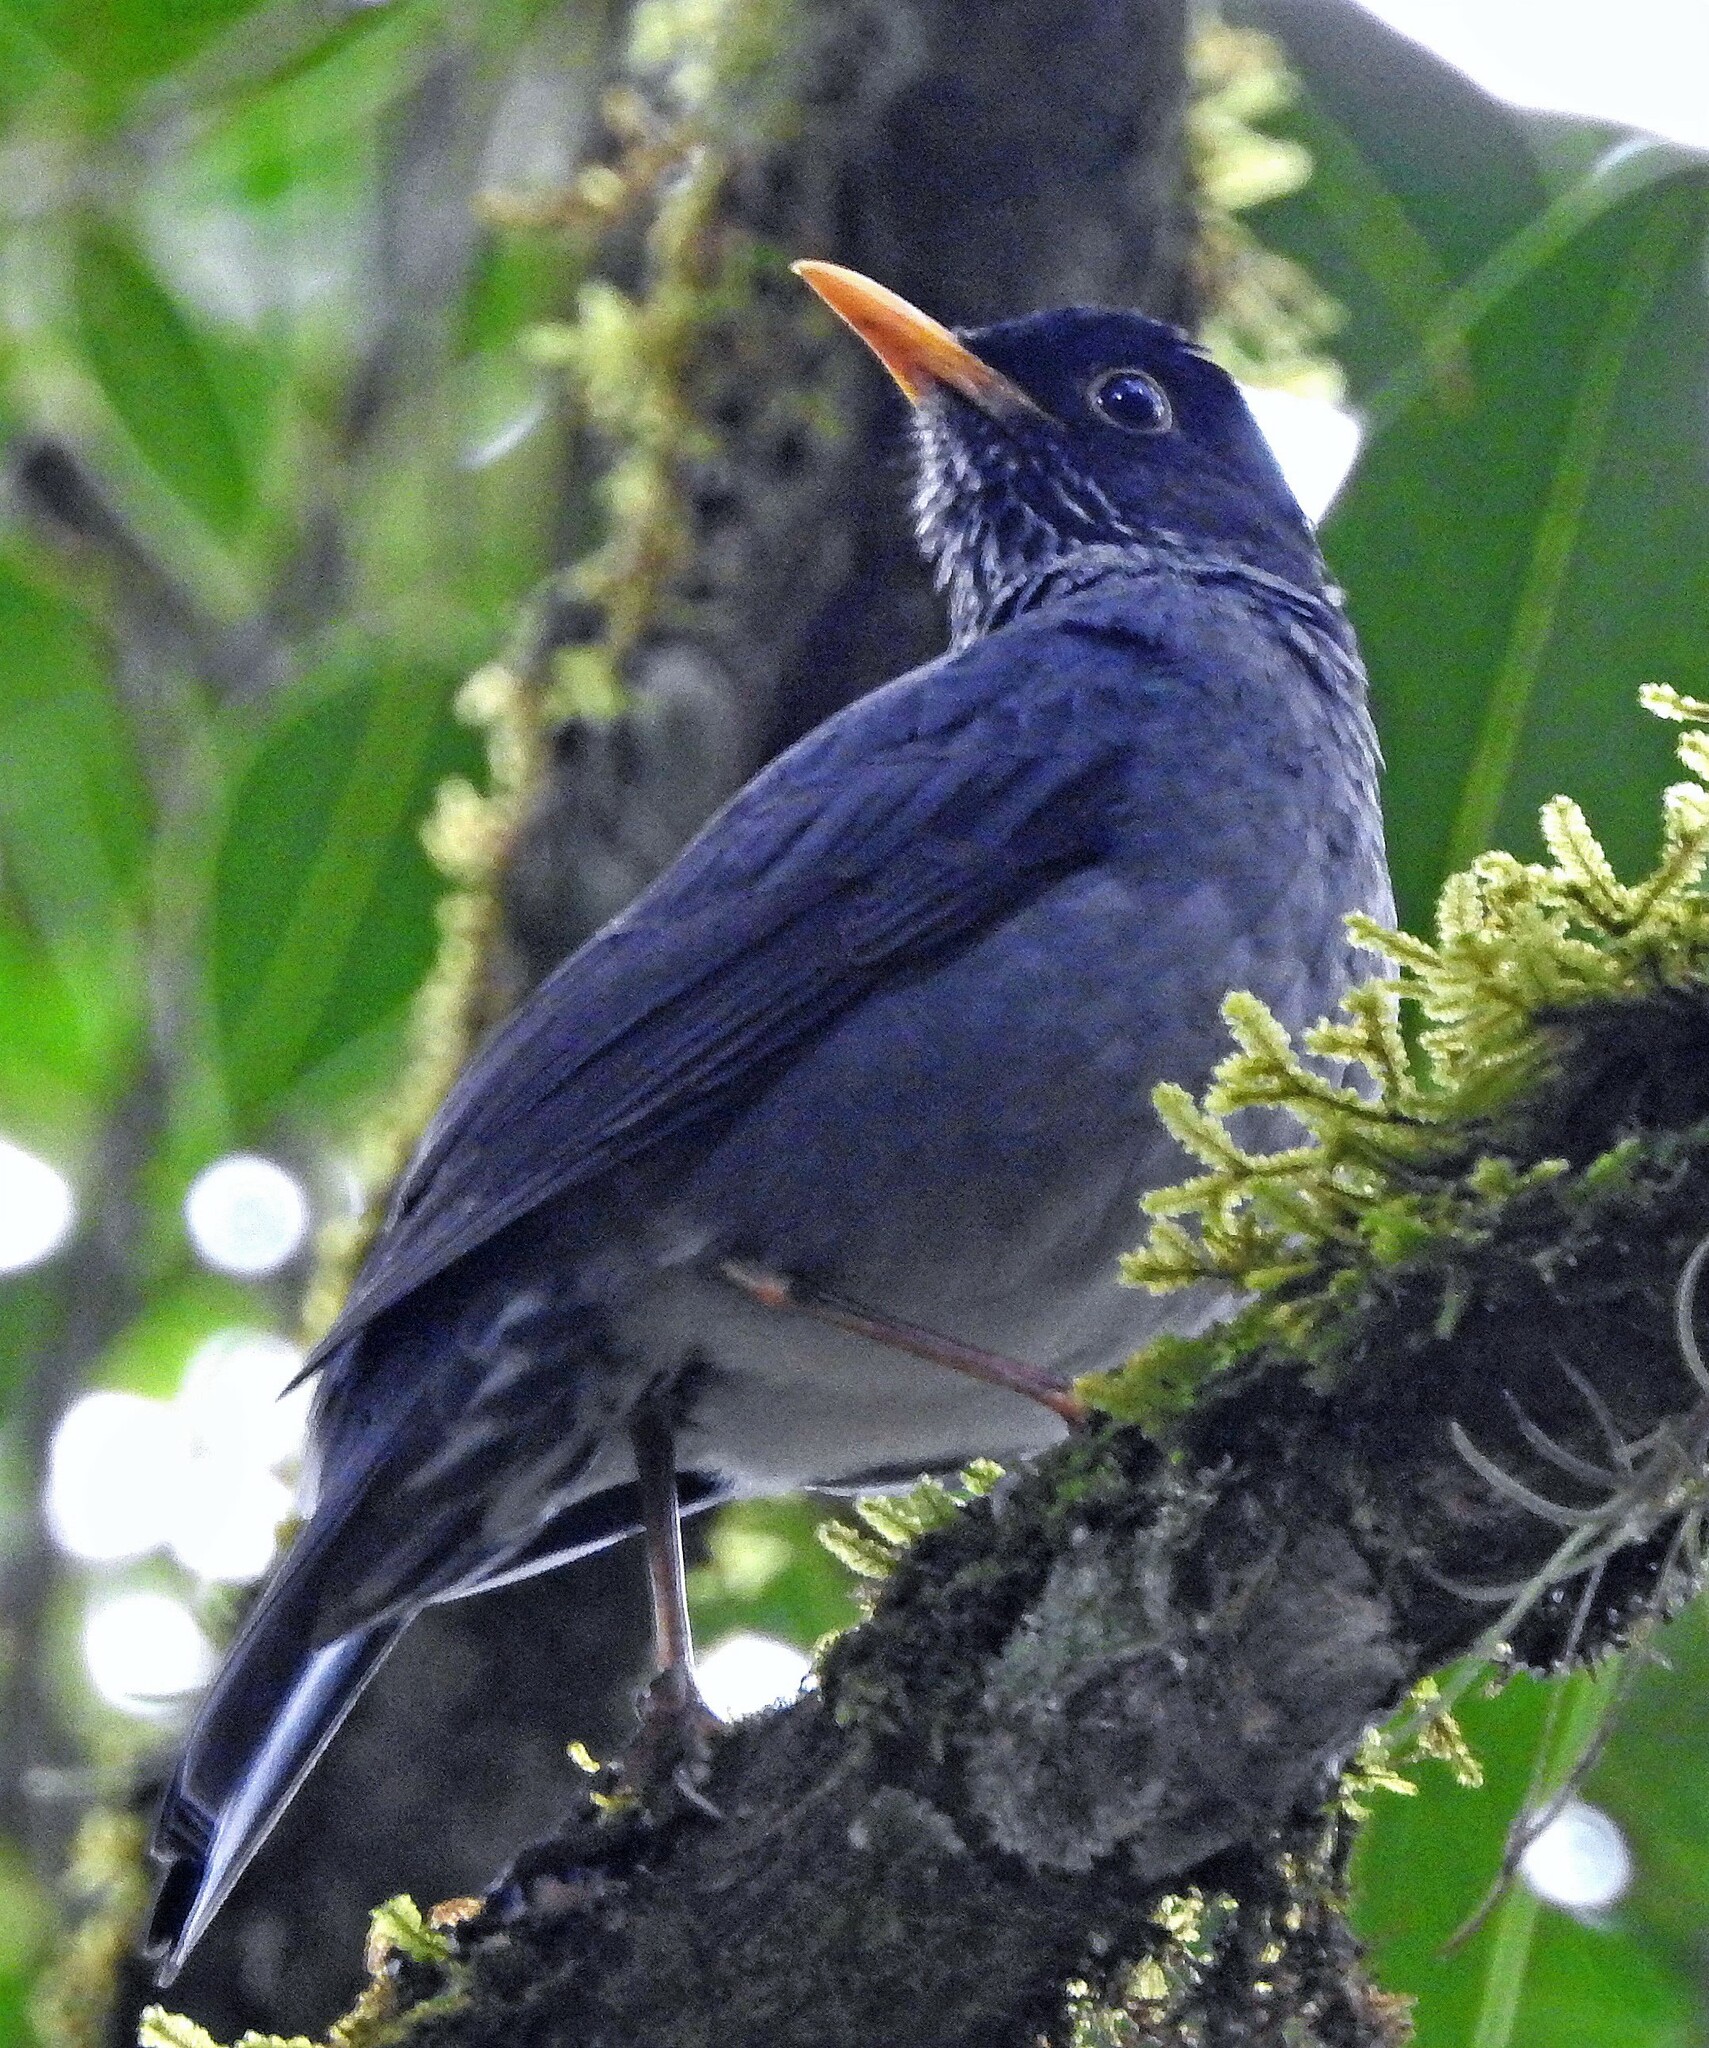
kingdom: Animalia
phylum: Chordata
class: Aves
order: Passeriformes
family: Turdidae
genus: Turdus
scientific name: Turdus nigriceps
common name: Andean slaty thrush
